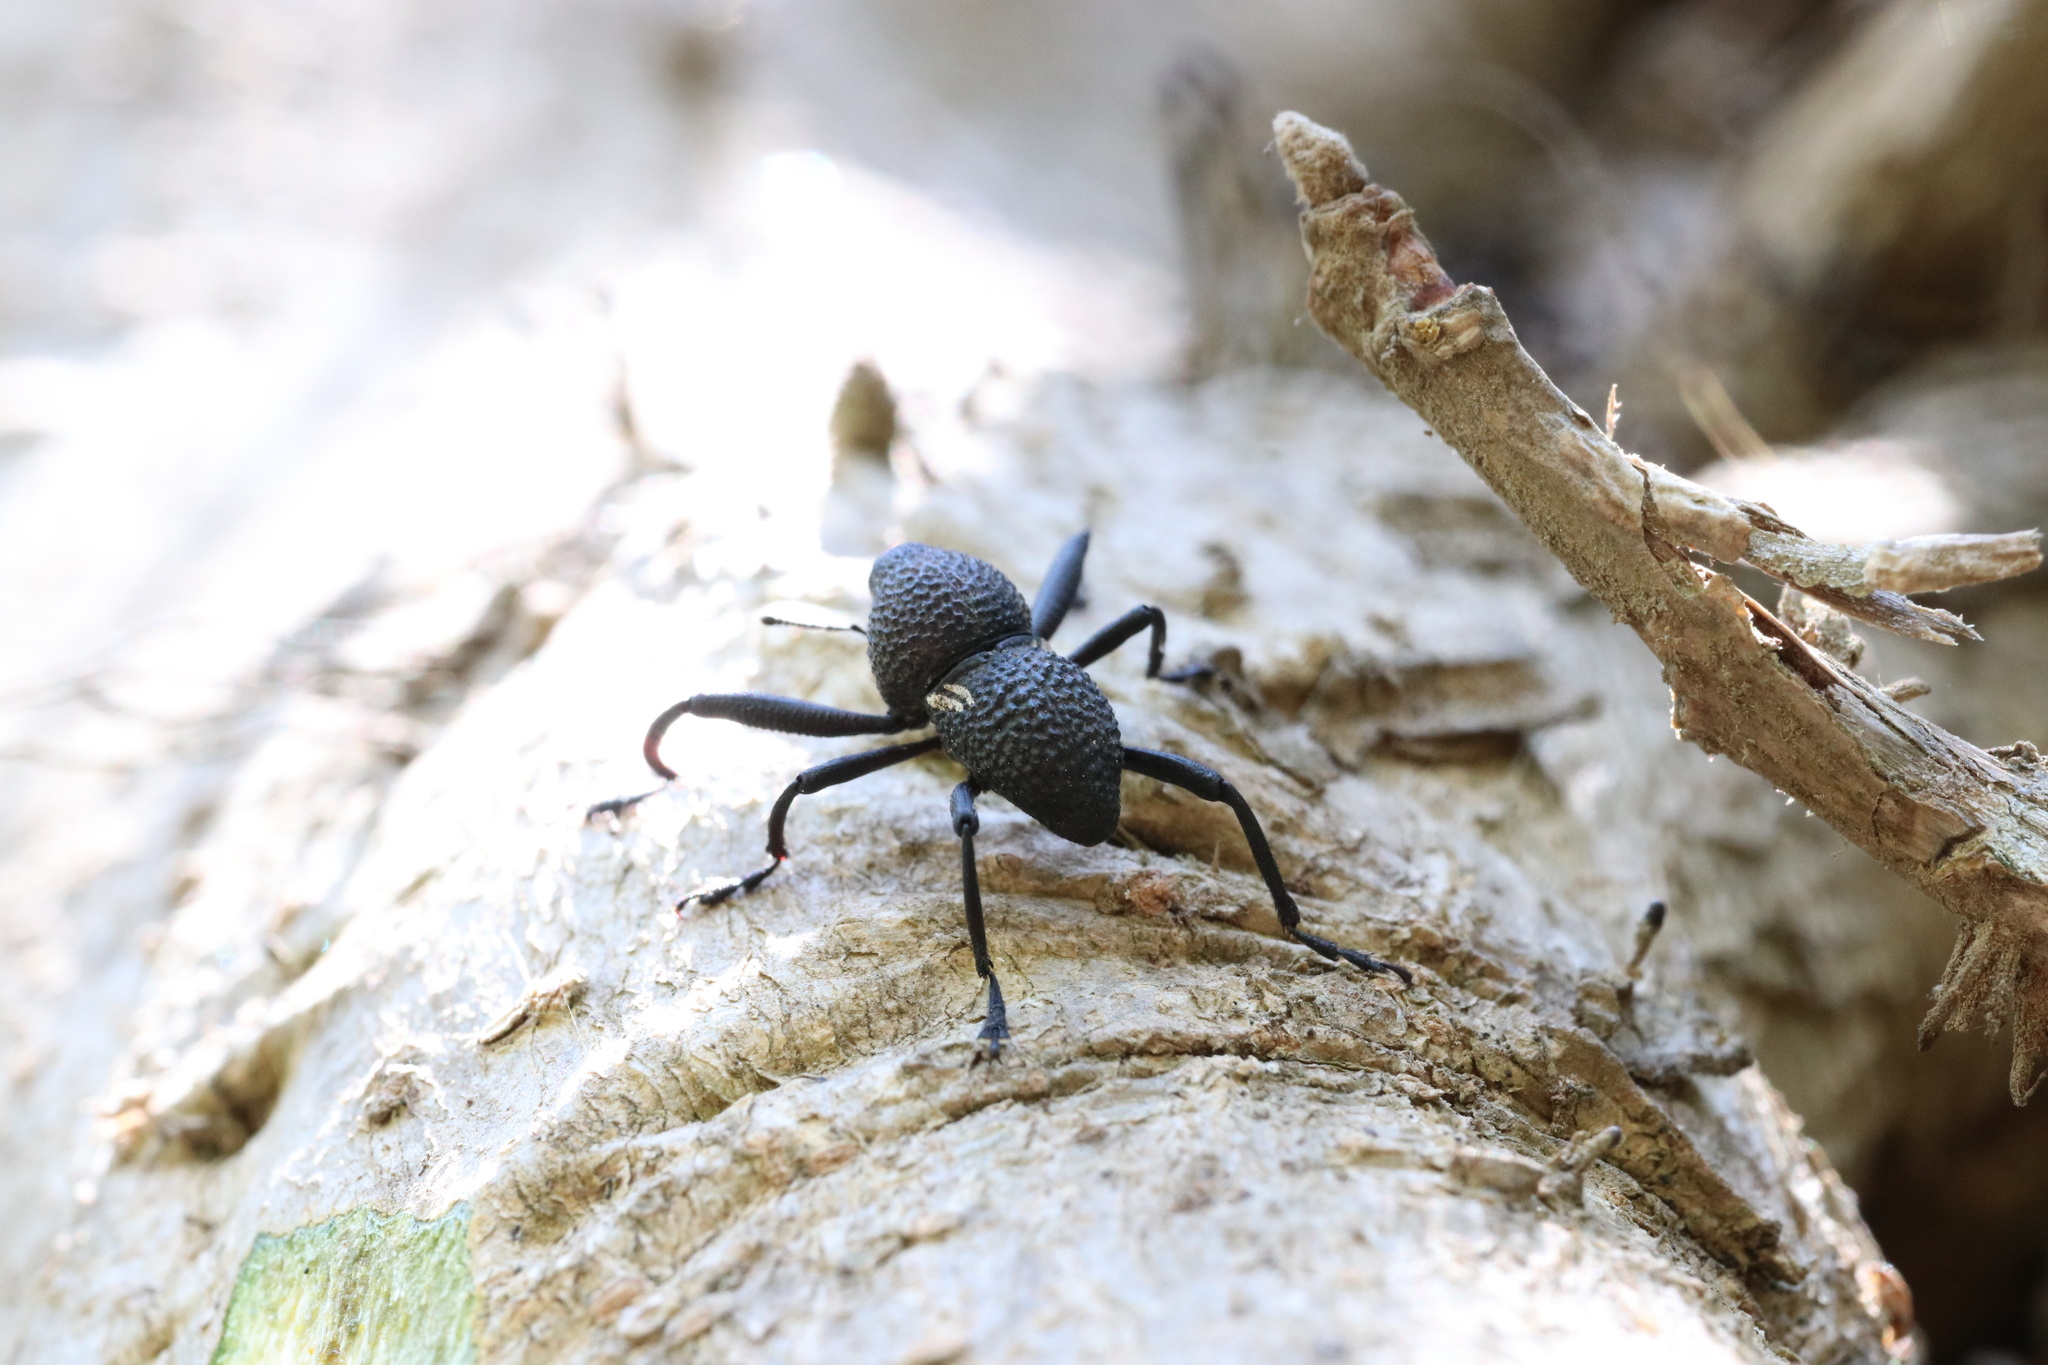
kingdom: Animalia
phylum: Arthropoda
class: Insecta
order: Coleoptera
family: Curculionidae
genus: Rhyephenes
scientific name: Rhyephenes humeralis
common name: Araè±ita chilena del pino
